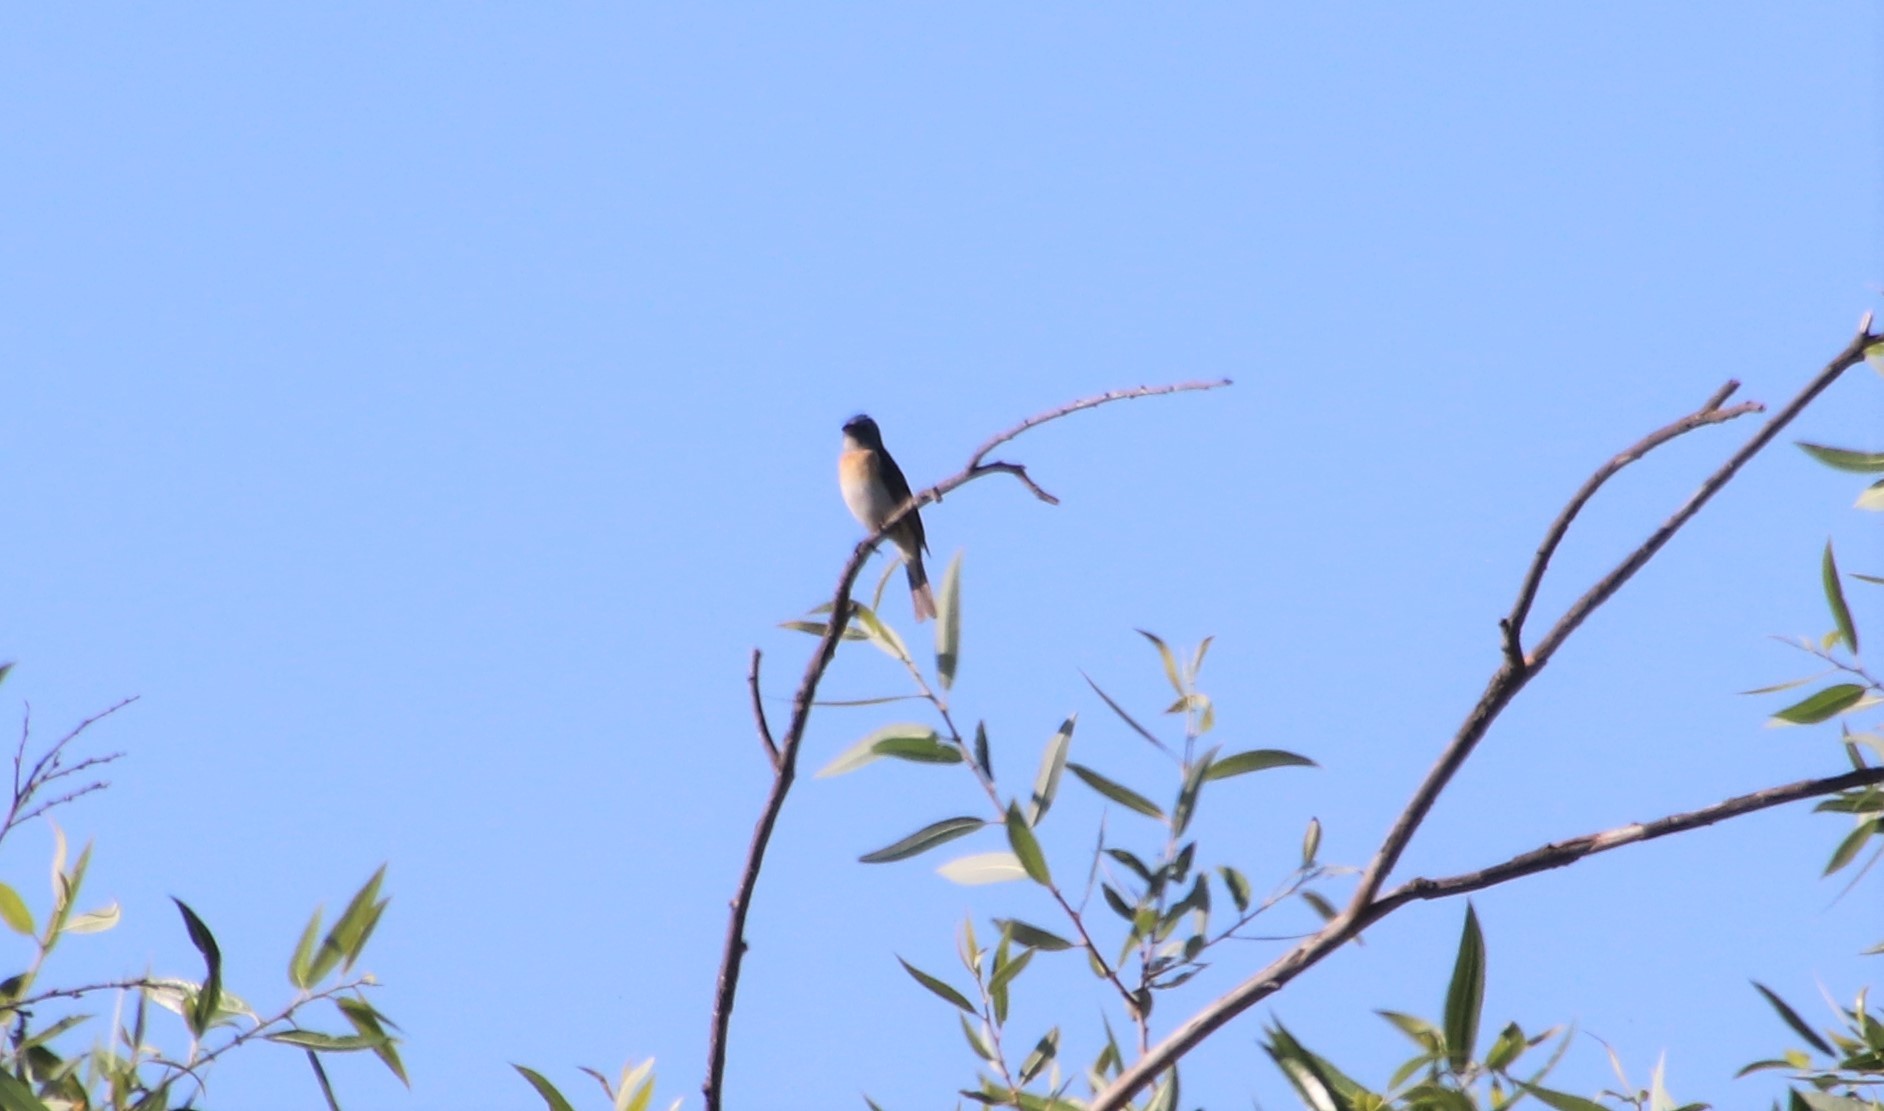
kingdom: Animalia
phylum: Chordata
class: Aves
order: Passeriformes
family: Cardinalidae
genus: Passerina
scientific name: Passerina amoena
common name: Lazuli bunting
